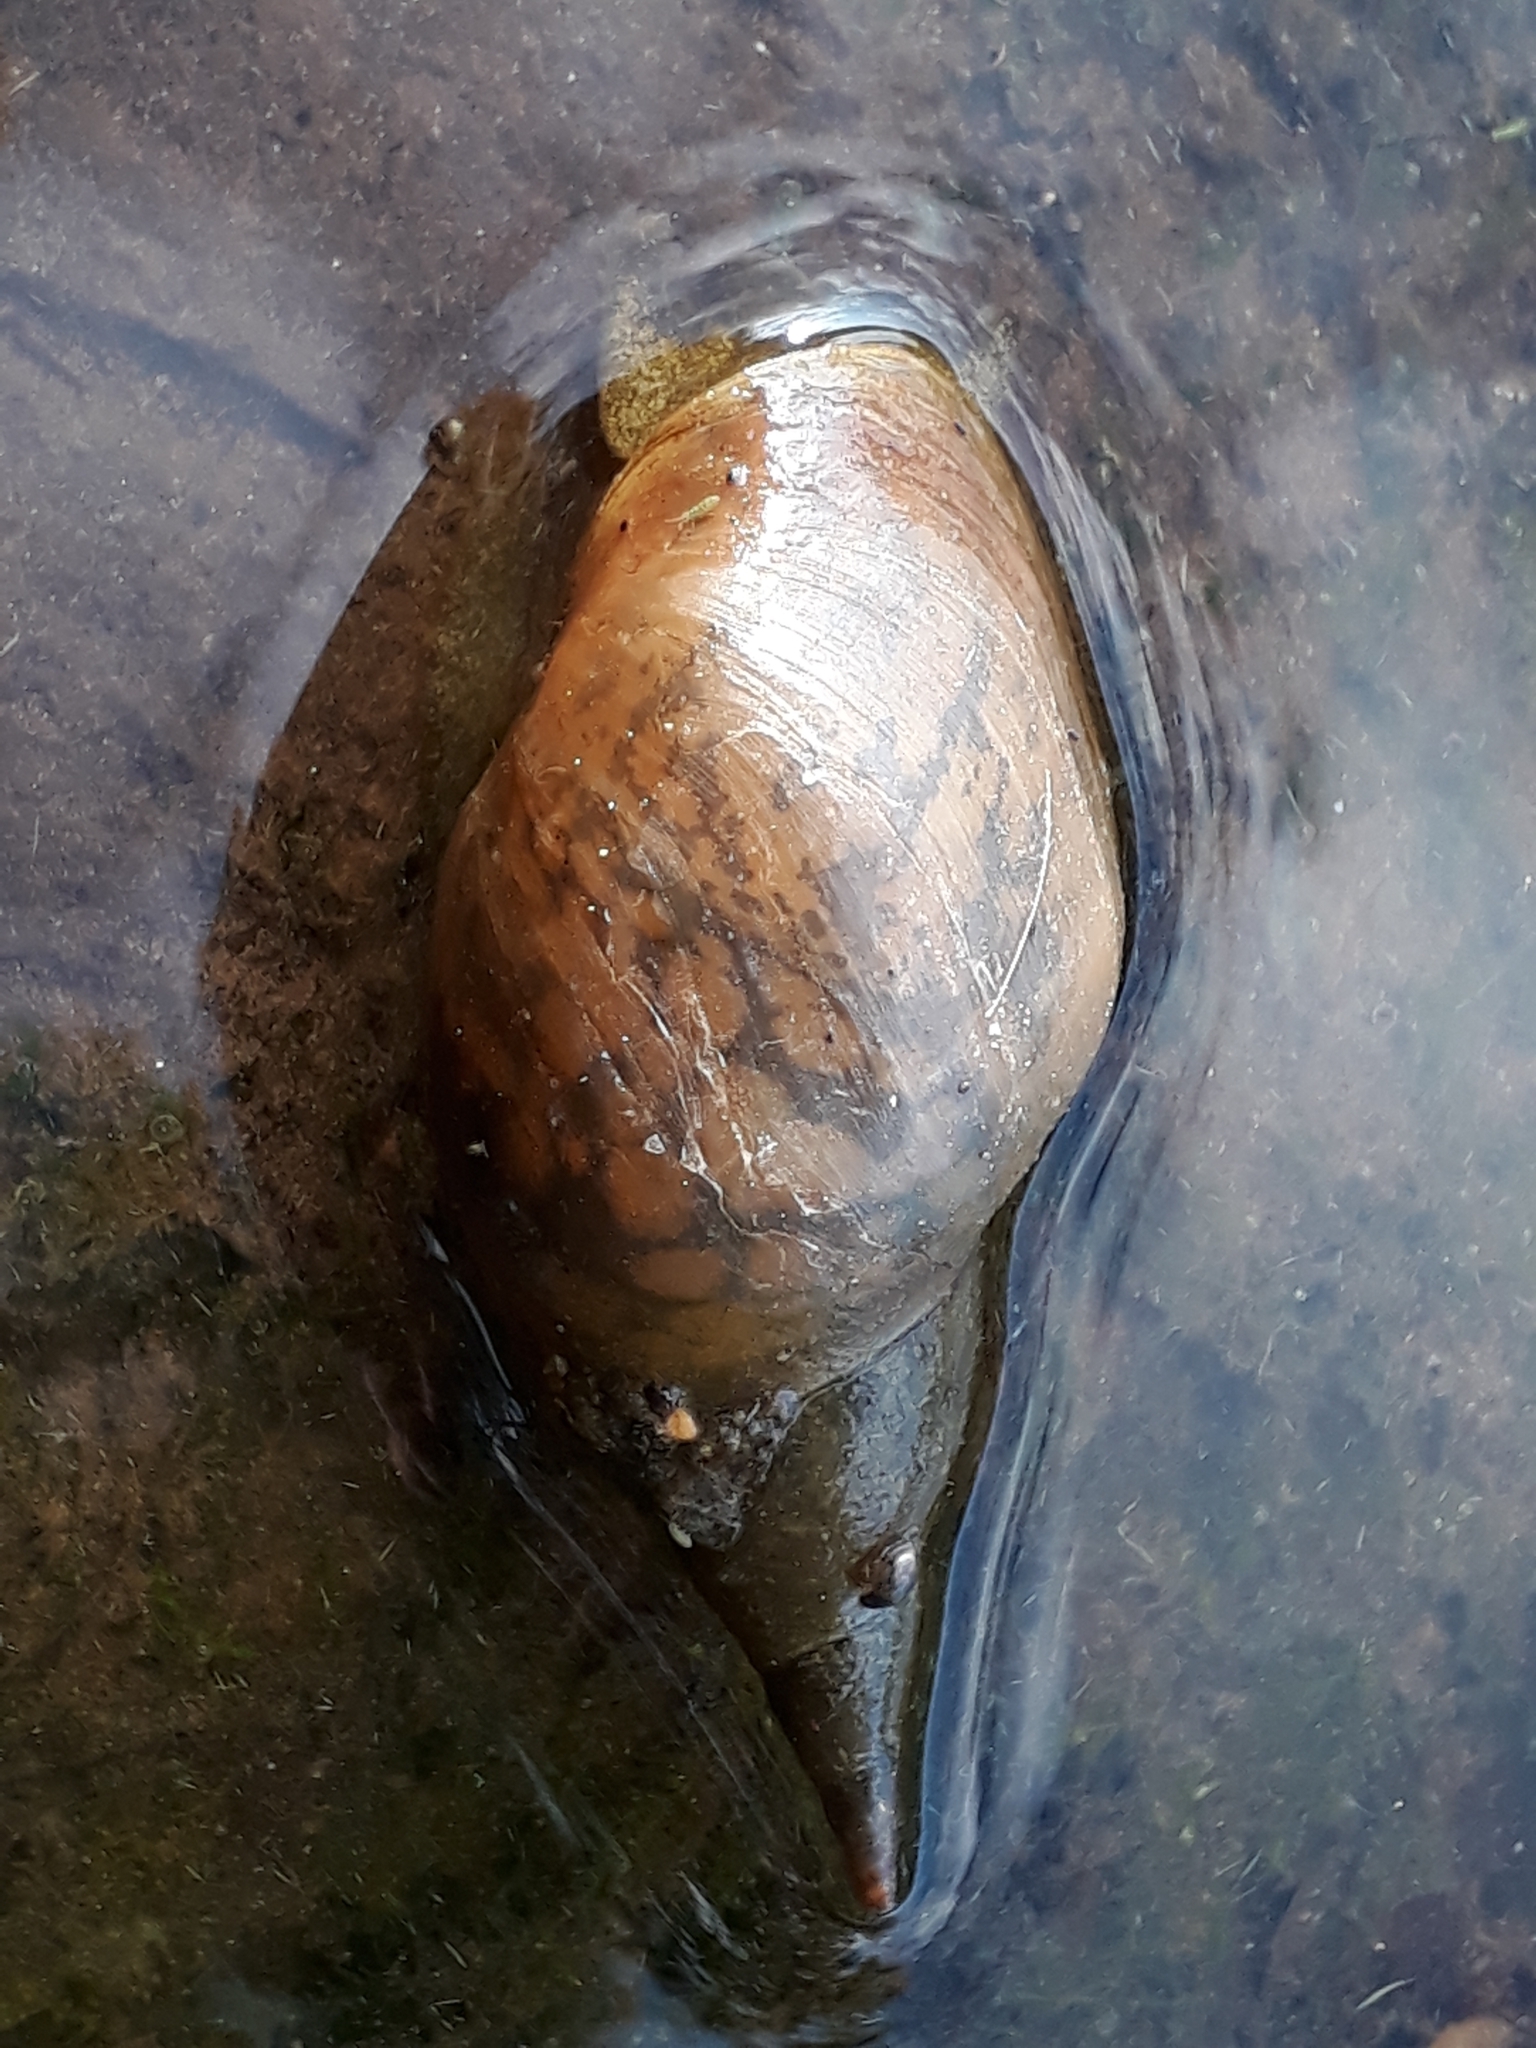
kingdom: Animalia
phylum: Mollusca
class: Gastropoda
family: Lymnaeidae
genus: Lymnaea
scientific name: Lymnaea stagnalis
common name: Great pond snail
